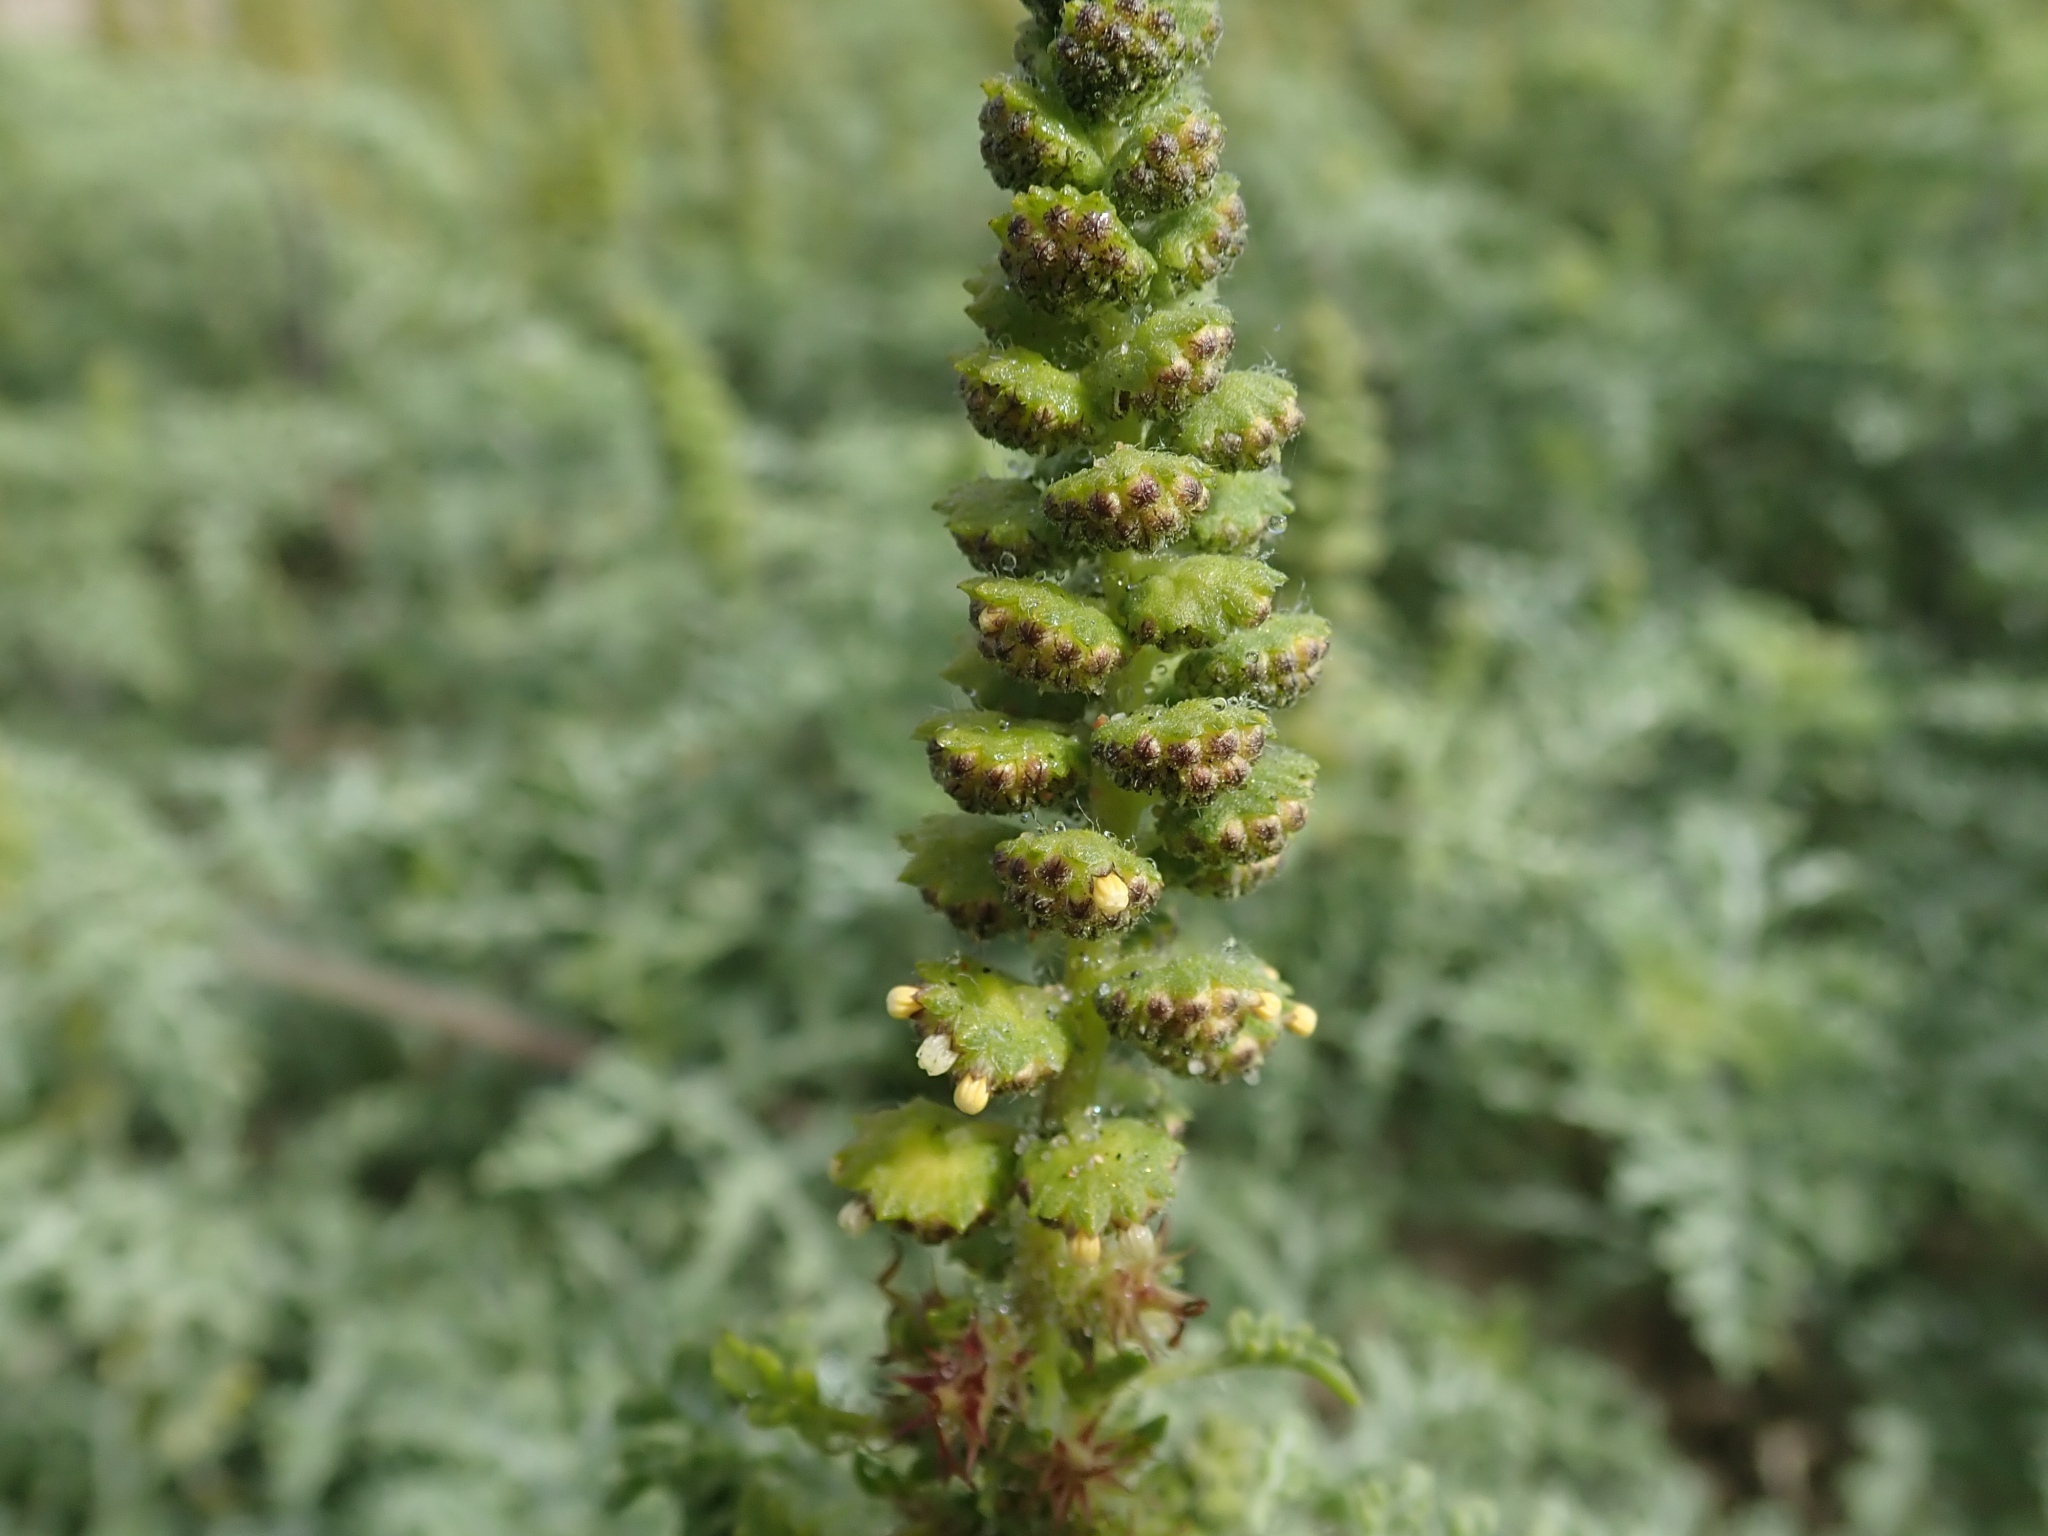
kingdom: Plantae
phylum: Tracheophyta
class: Magnoliopsida
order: Asterales
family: Asteraceae
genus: Ambrosia
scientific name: Ambrosia chamissonis
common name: Beachbur
